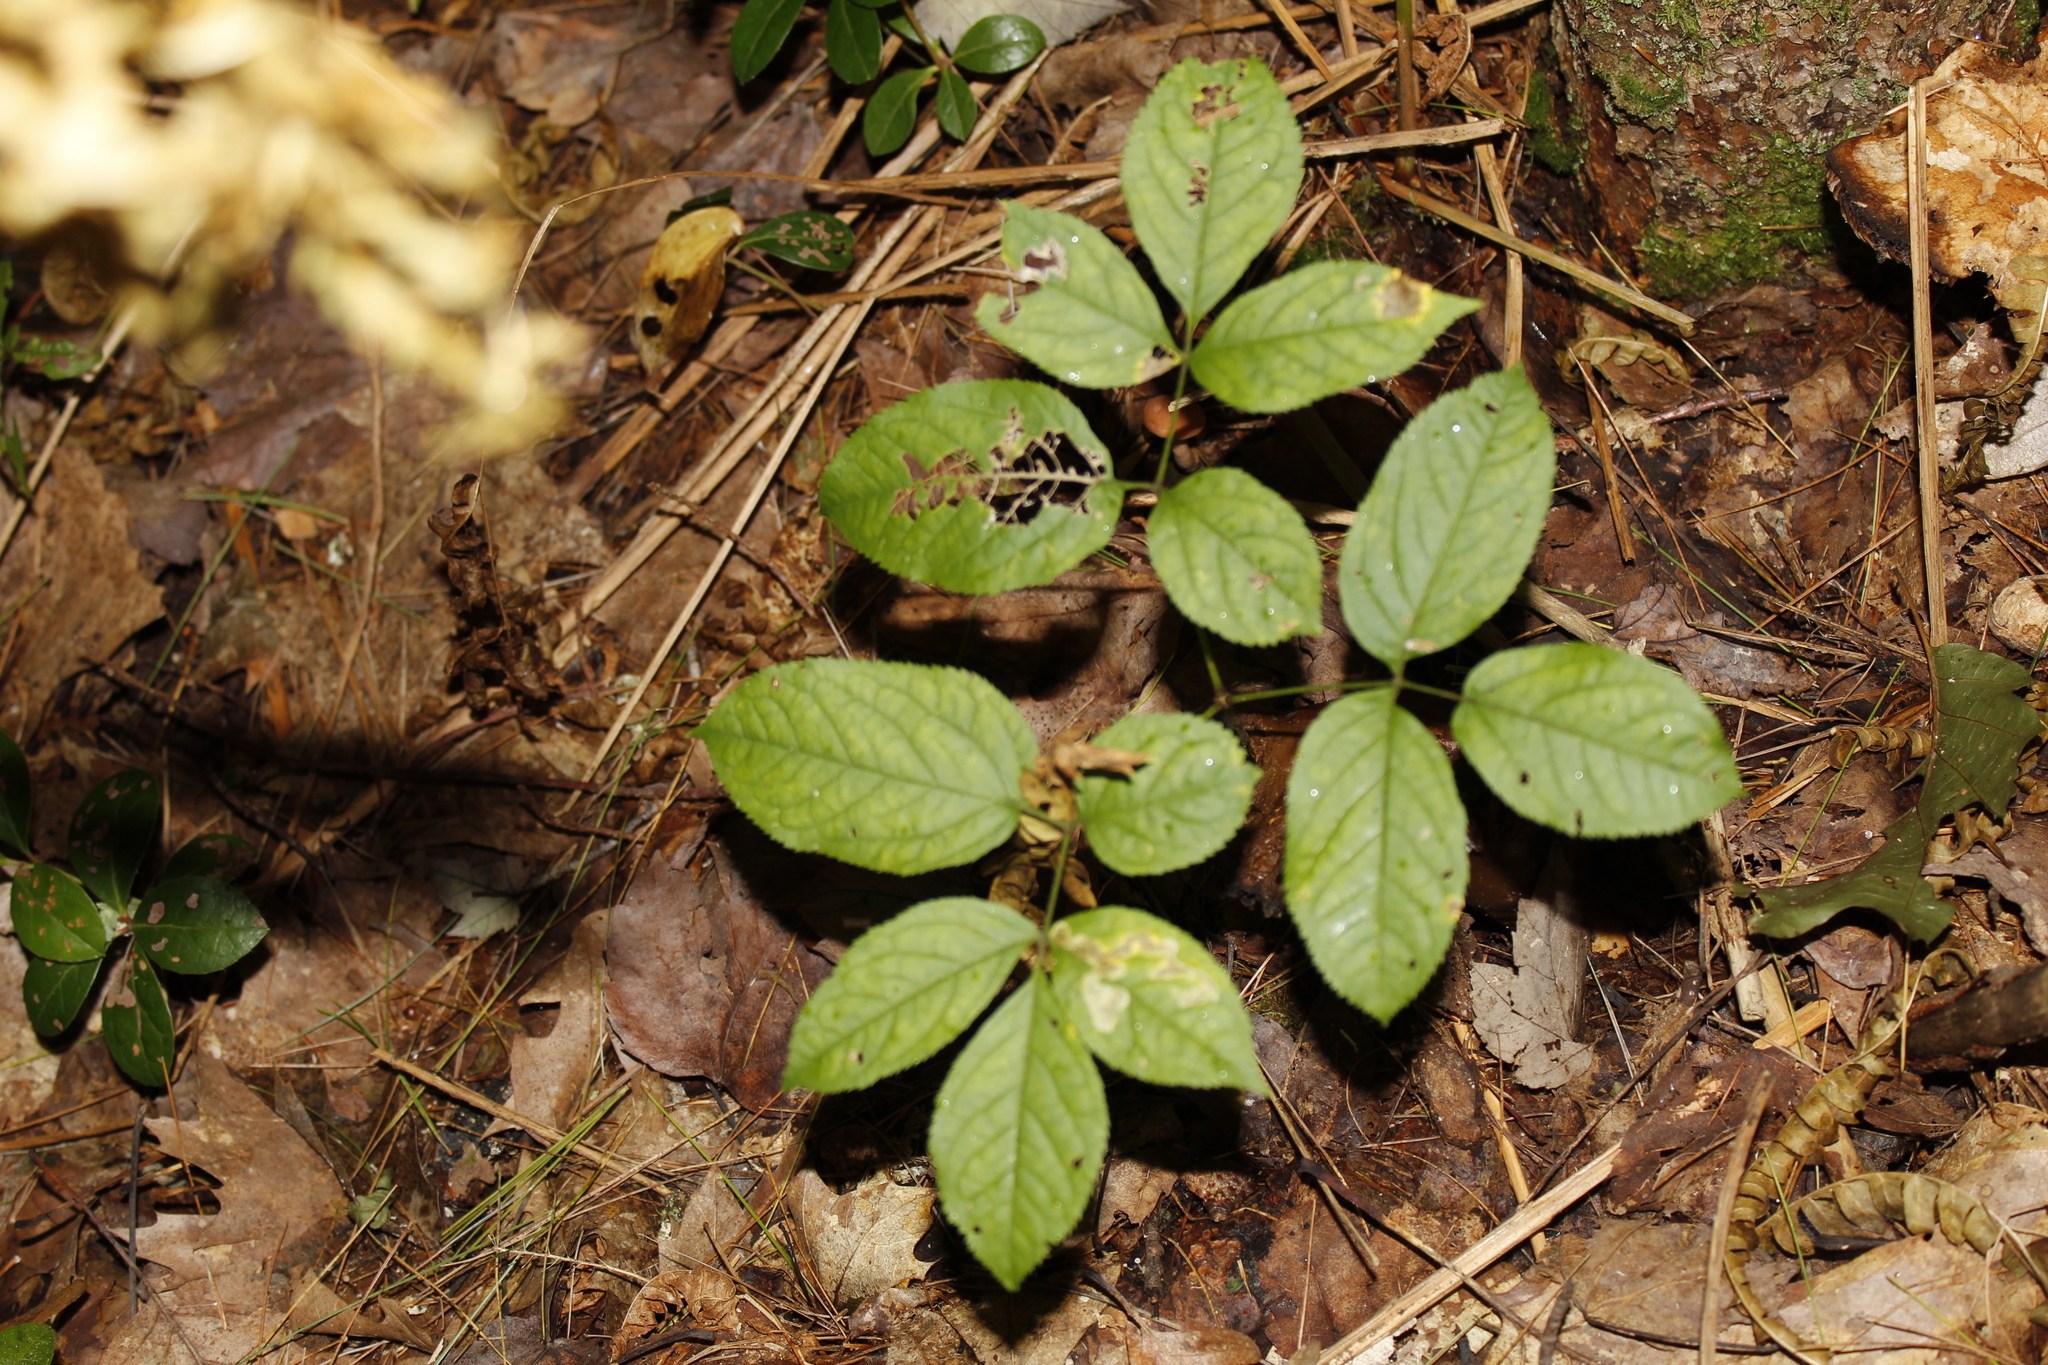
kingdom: Plantae
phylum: Tracheophyta
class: Magnoliopsida
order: Apiales
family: Araliaceae
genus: Aralia
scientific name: Aralia nudicaulis
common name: Wild sarsaparilla
